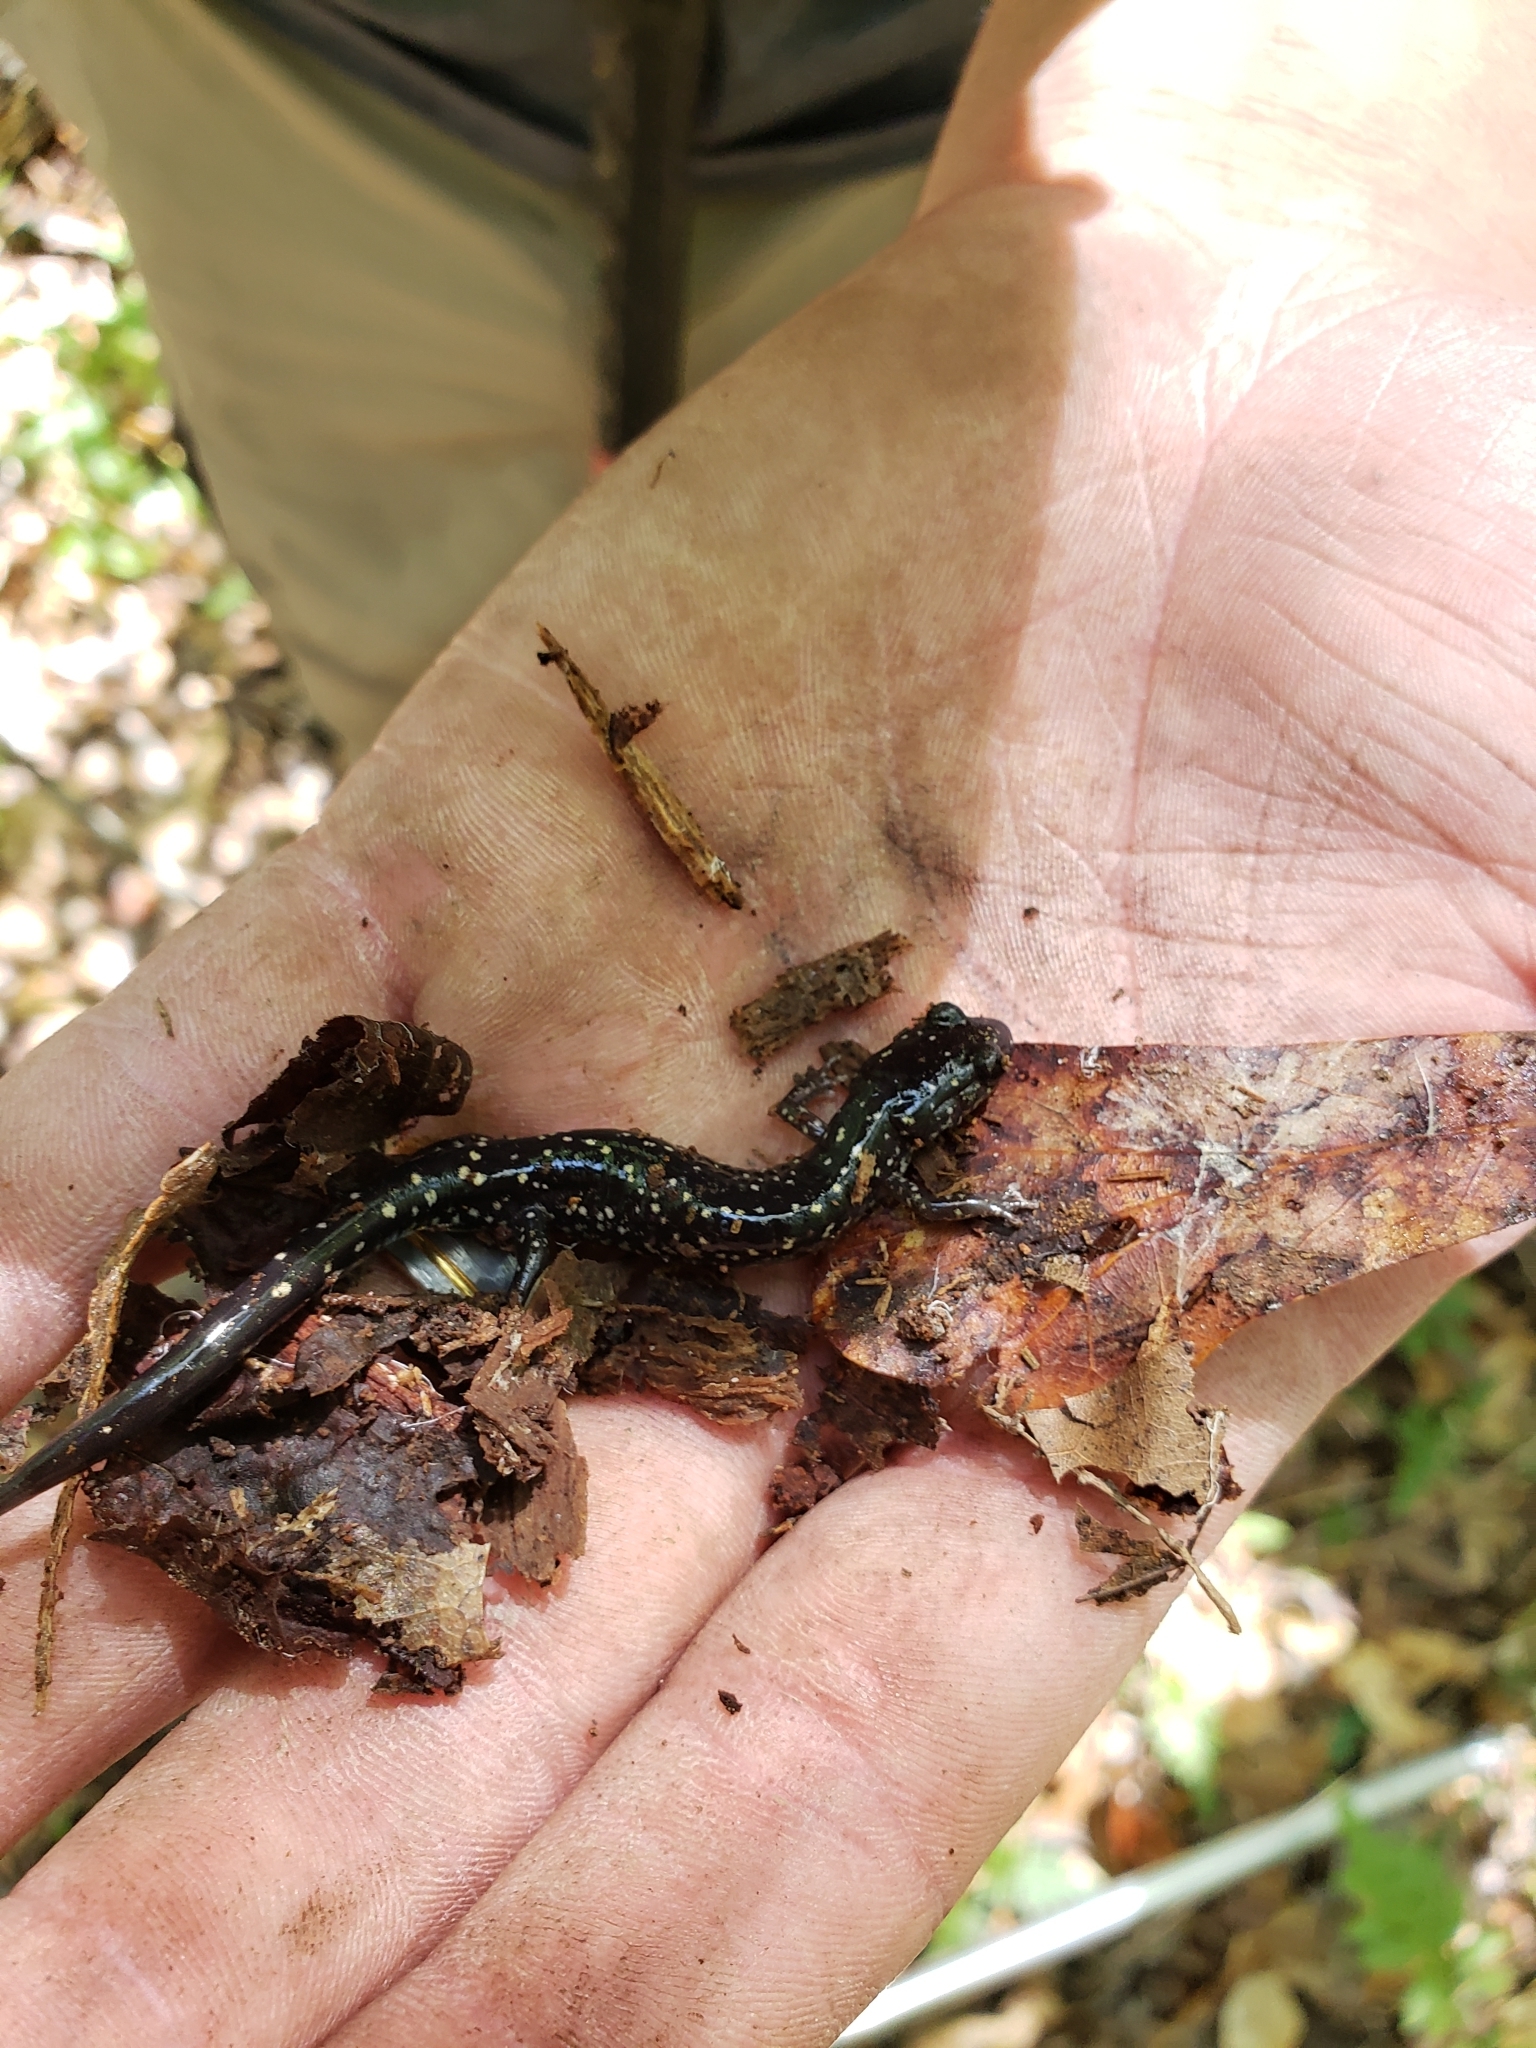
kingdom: Animalia
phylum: Chordata
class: Amphibia
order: Caudata
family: Plethodontidae
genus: Plethodon
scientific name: Plethodon mississippi
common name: Mississippi slimy salamander
